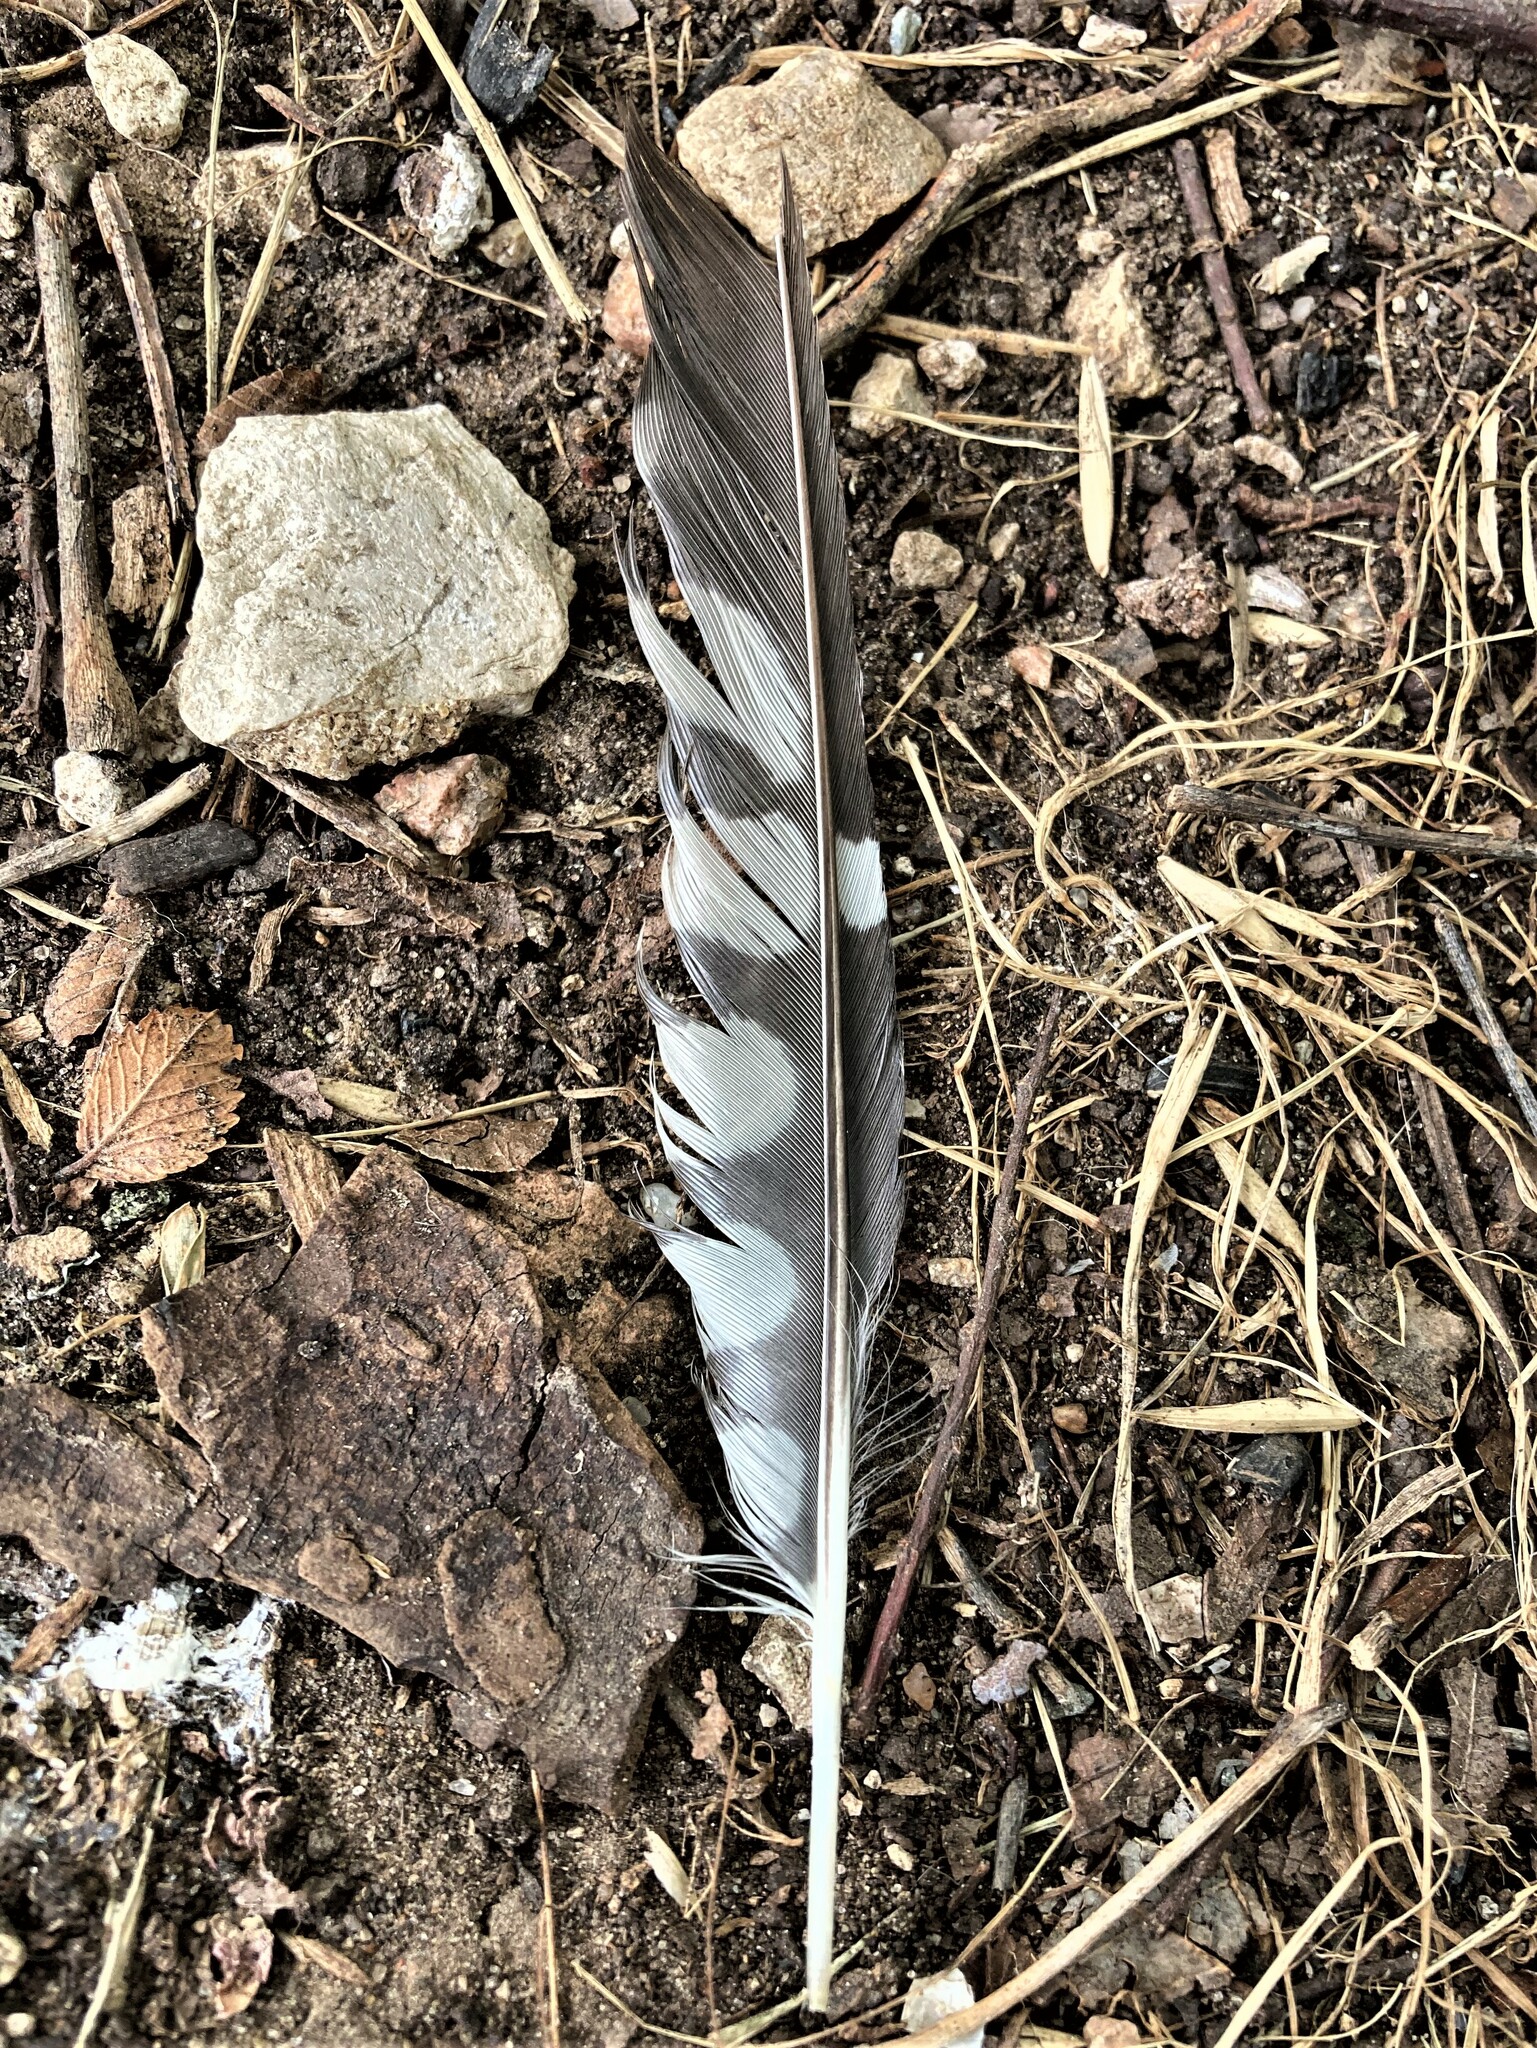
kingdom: Animalia
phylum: Chordata
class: Aves
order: Piciformes
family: Picidae
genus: Melanerpes
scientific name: Melanerpes carolinus
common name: Red-bellied woodpecker
